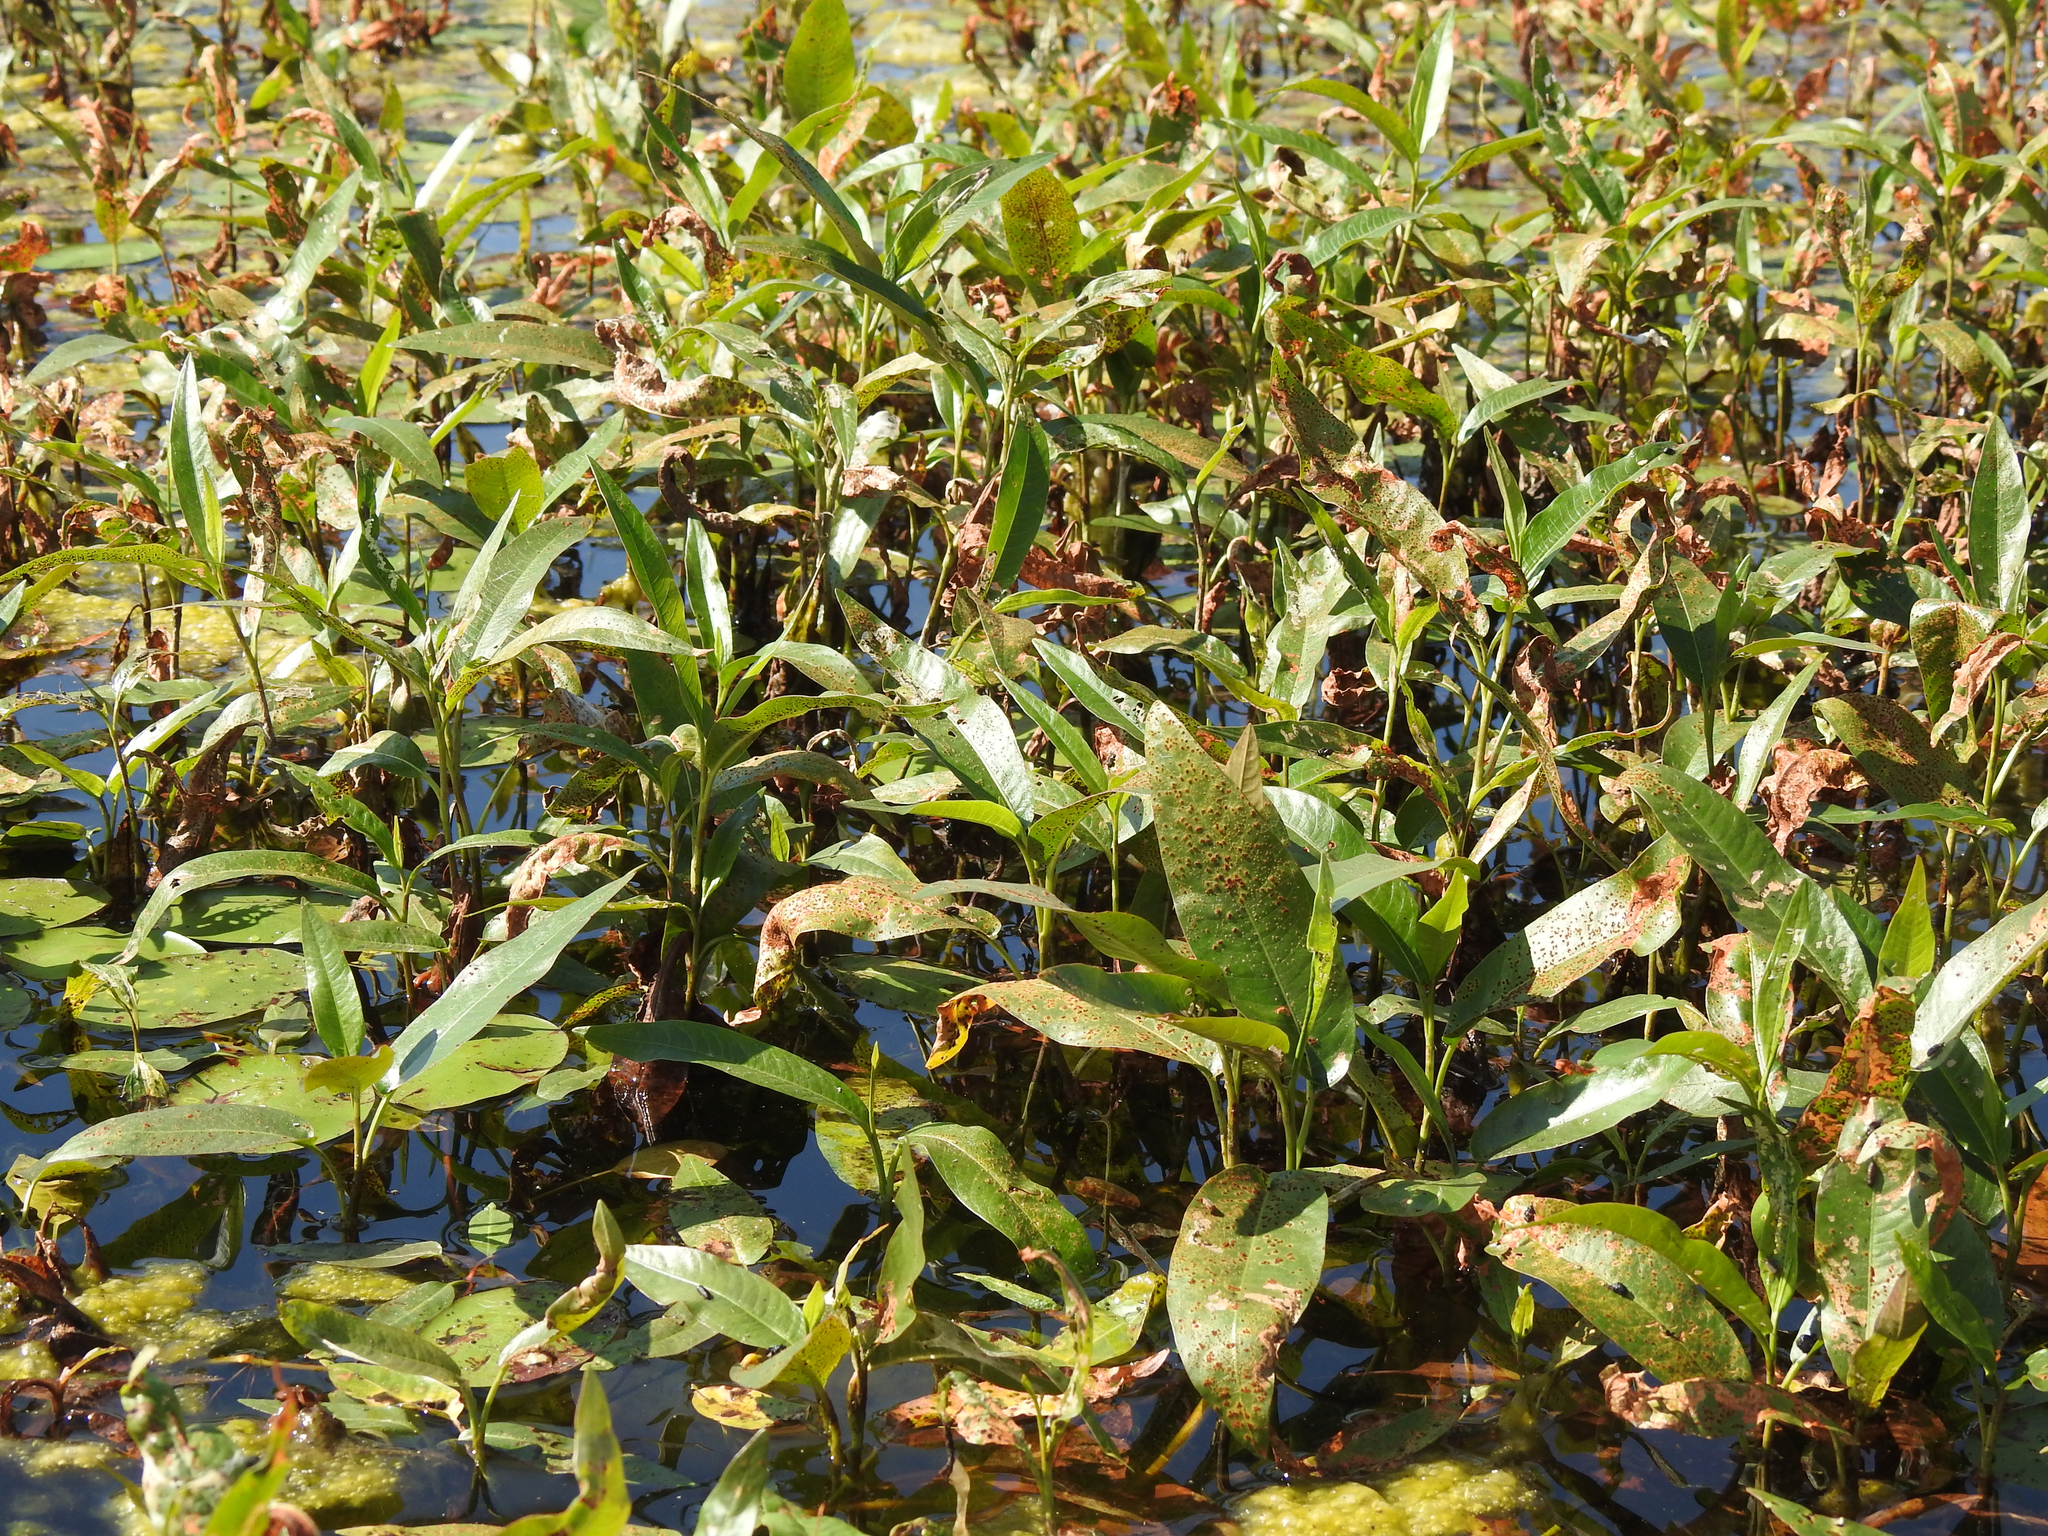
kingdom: Plantae
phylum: Tracheophyta
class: Magnoliopsida
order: Caryophyllales
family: Polygonaceae
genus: Persicaria
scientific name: Persicaria amphibia
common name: Amphibious bistort
